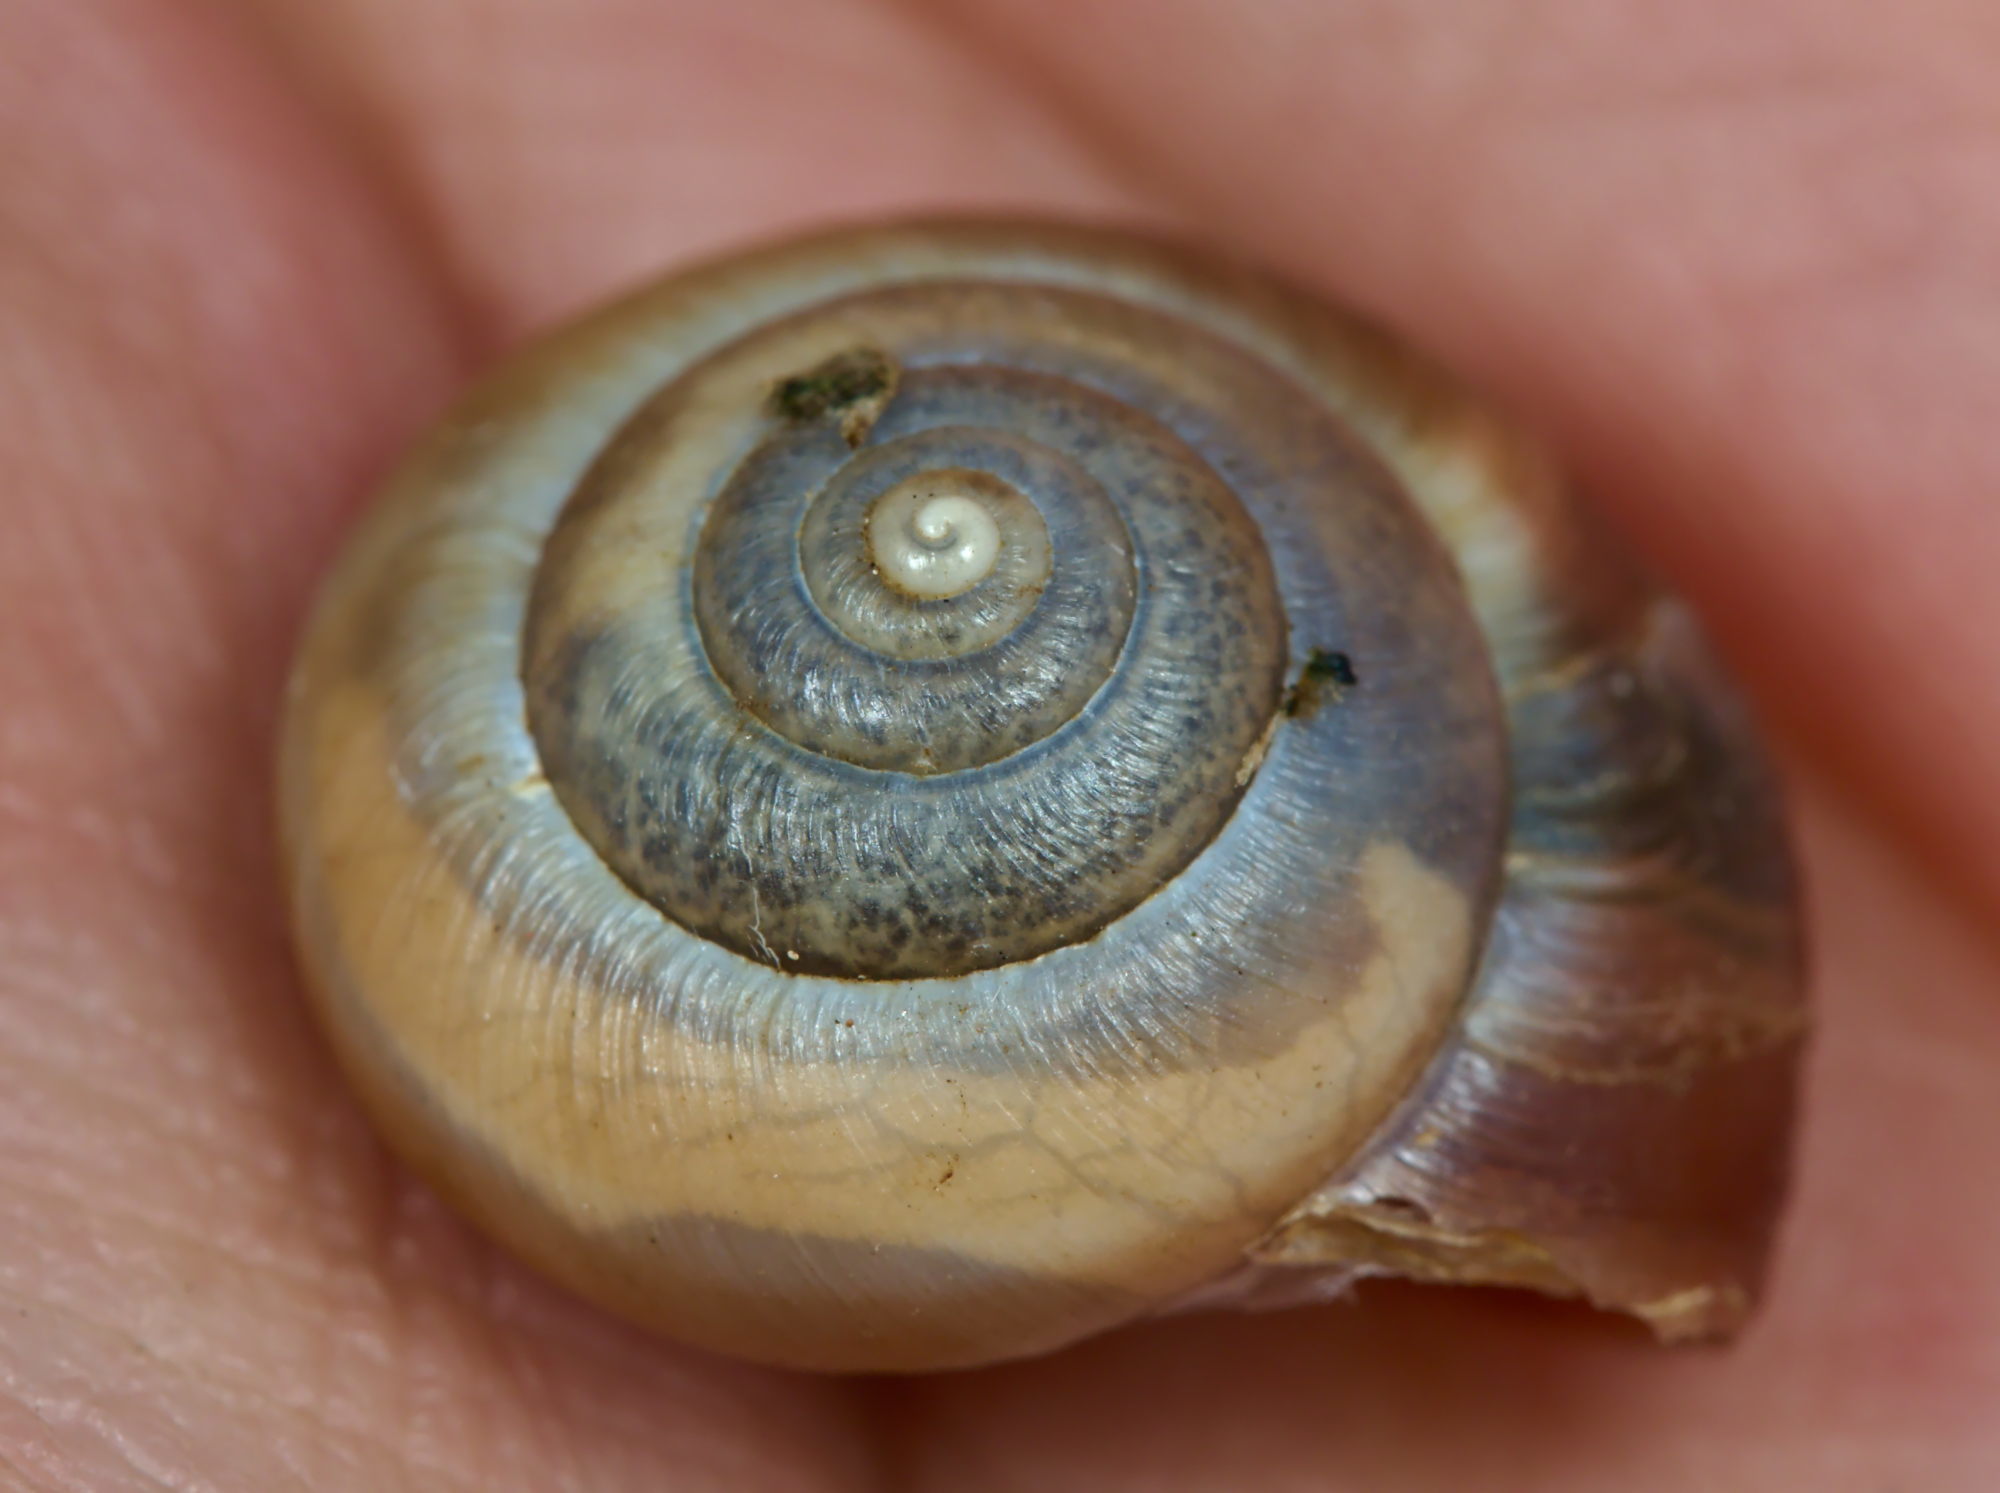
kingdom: Animalia
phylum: Mollusca
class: Gastropoda
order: Stylommatophora
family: Hygromiidae
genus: Monacha
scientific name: Monacha cantiana
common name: Kentish snail
